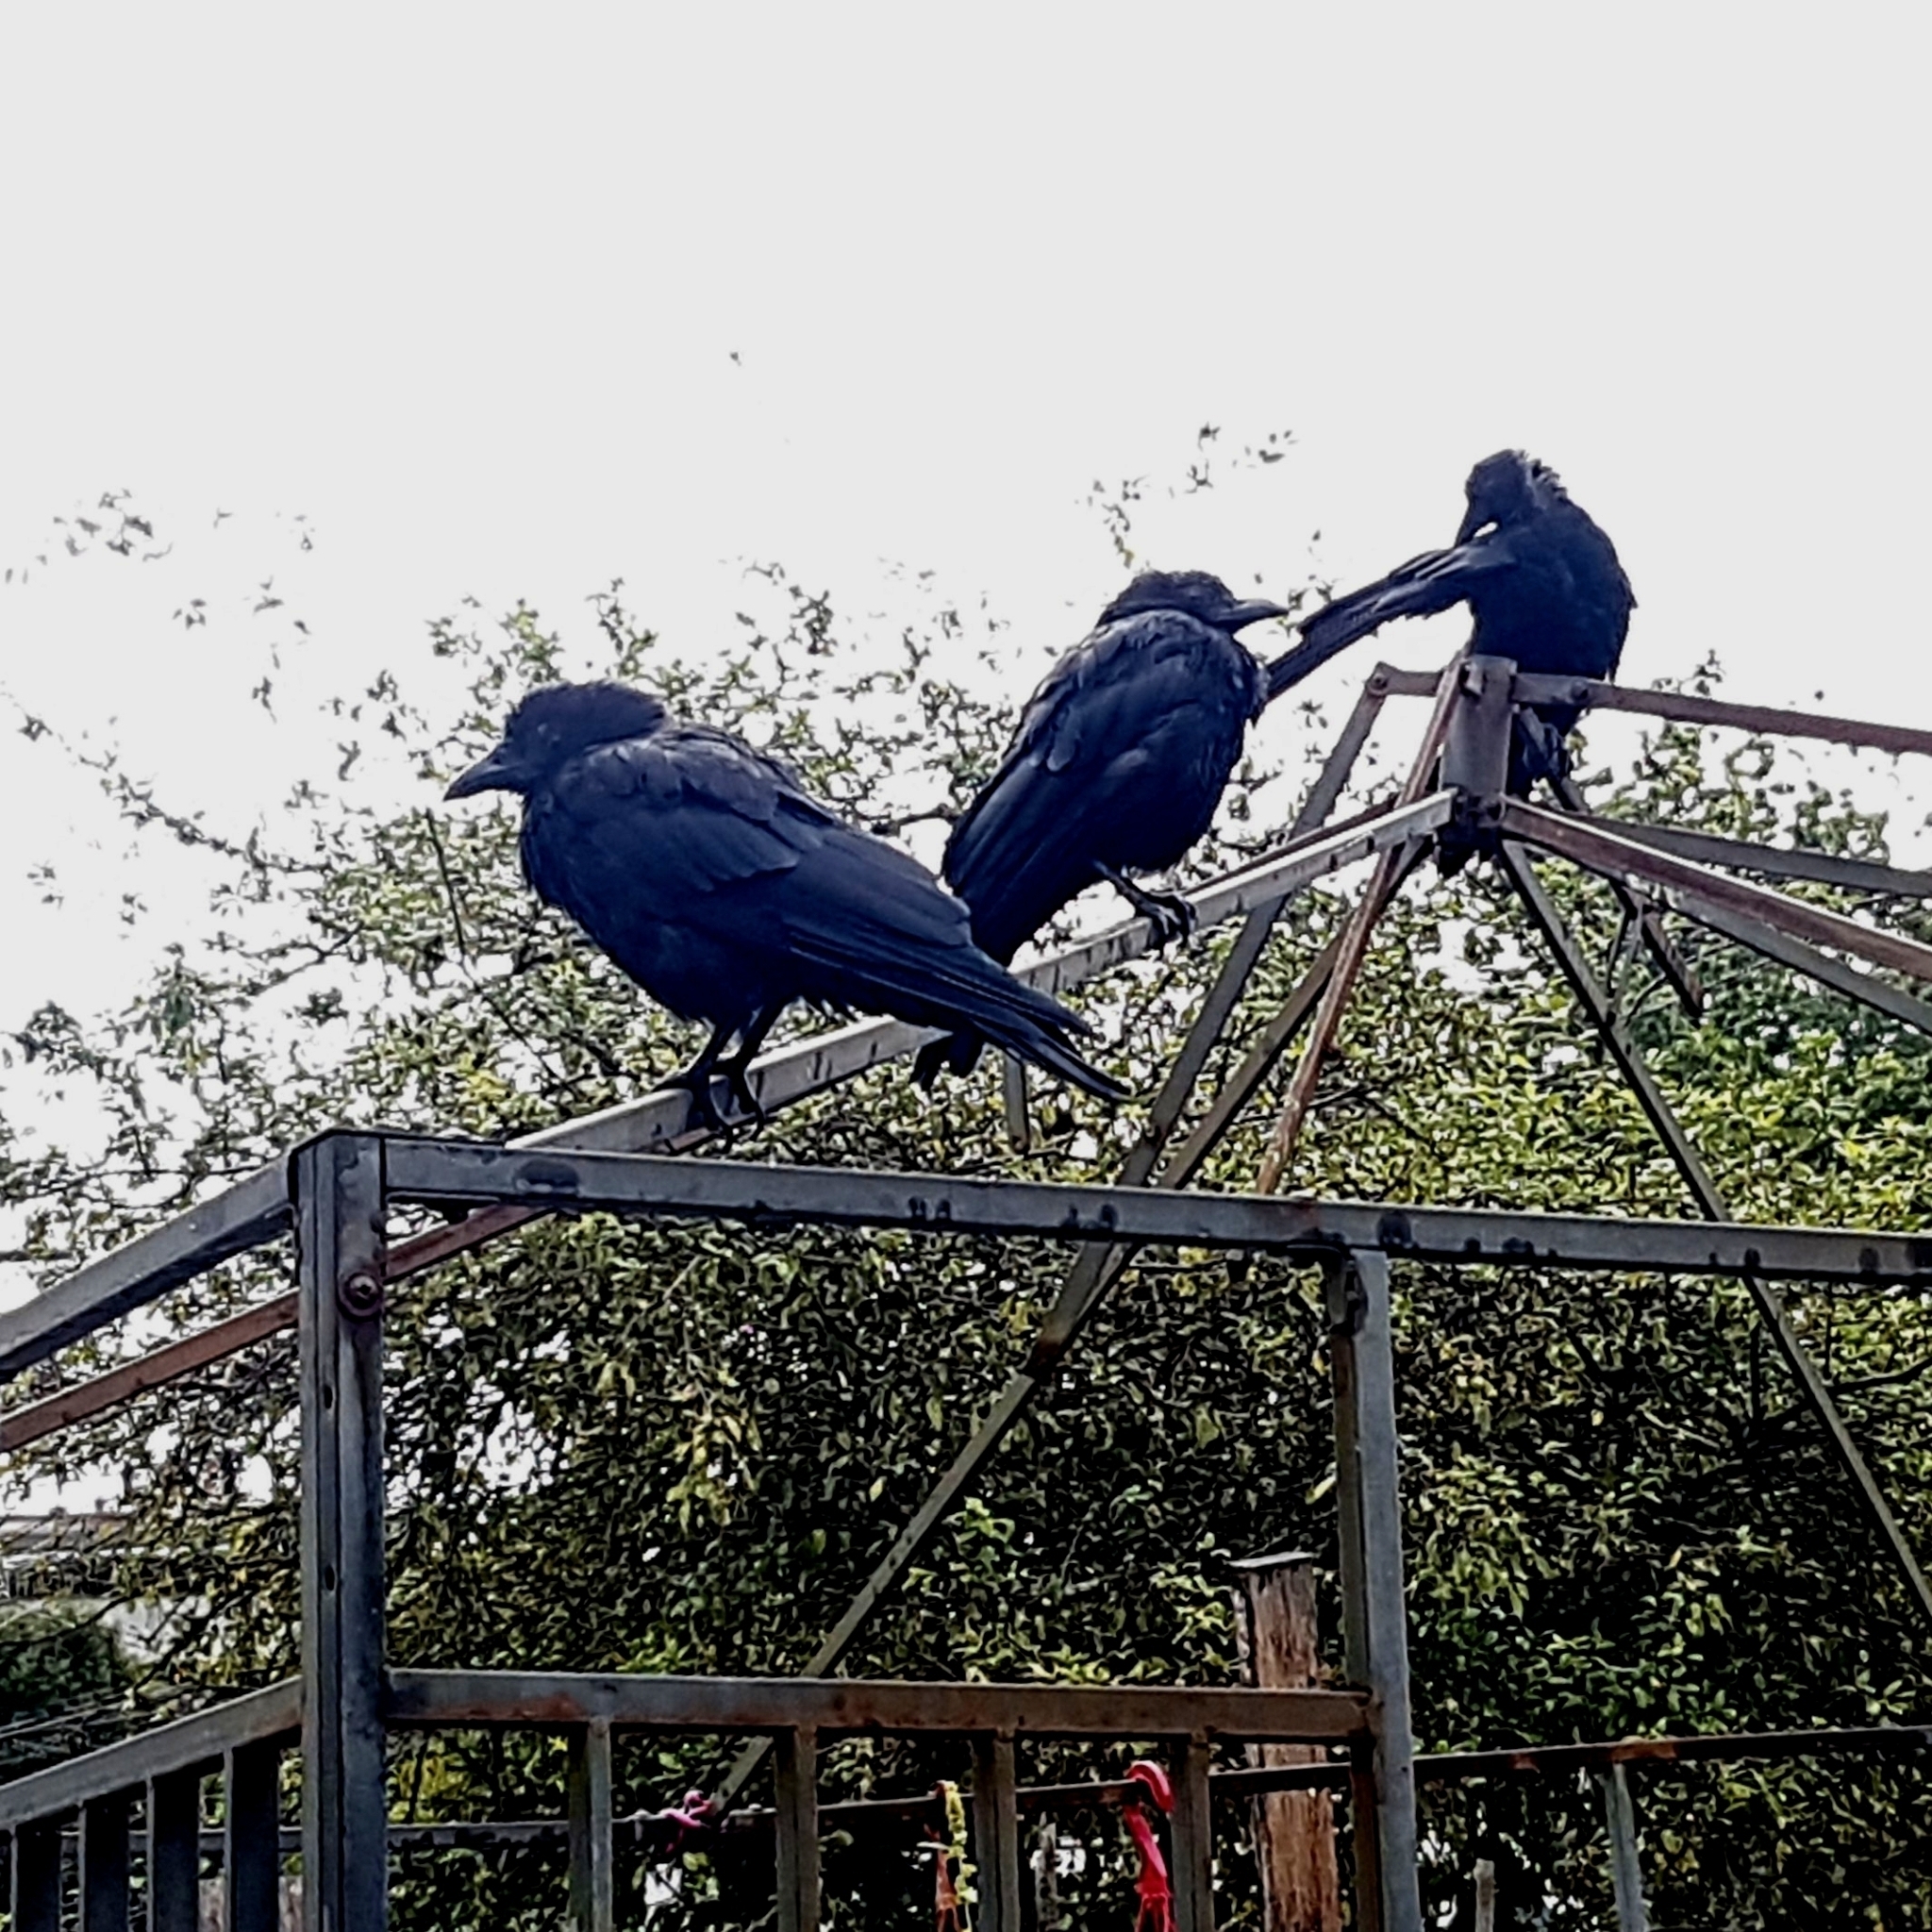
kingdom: Animalia
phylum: Chordata
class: Aves
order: Passeriformes
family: Corvidae
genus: Corvus
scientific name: Corvus brachyrhynchos
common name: American crow
